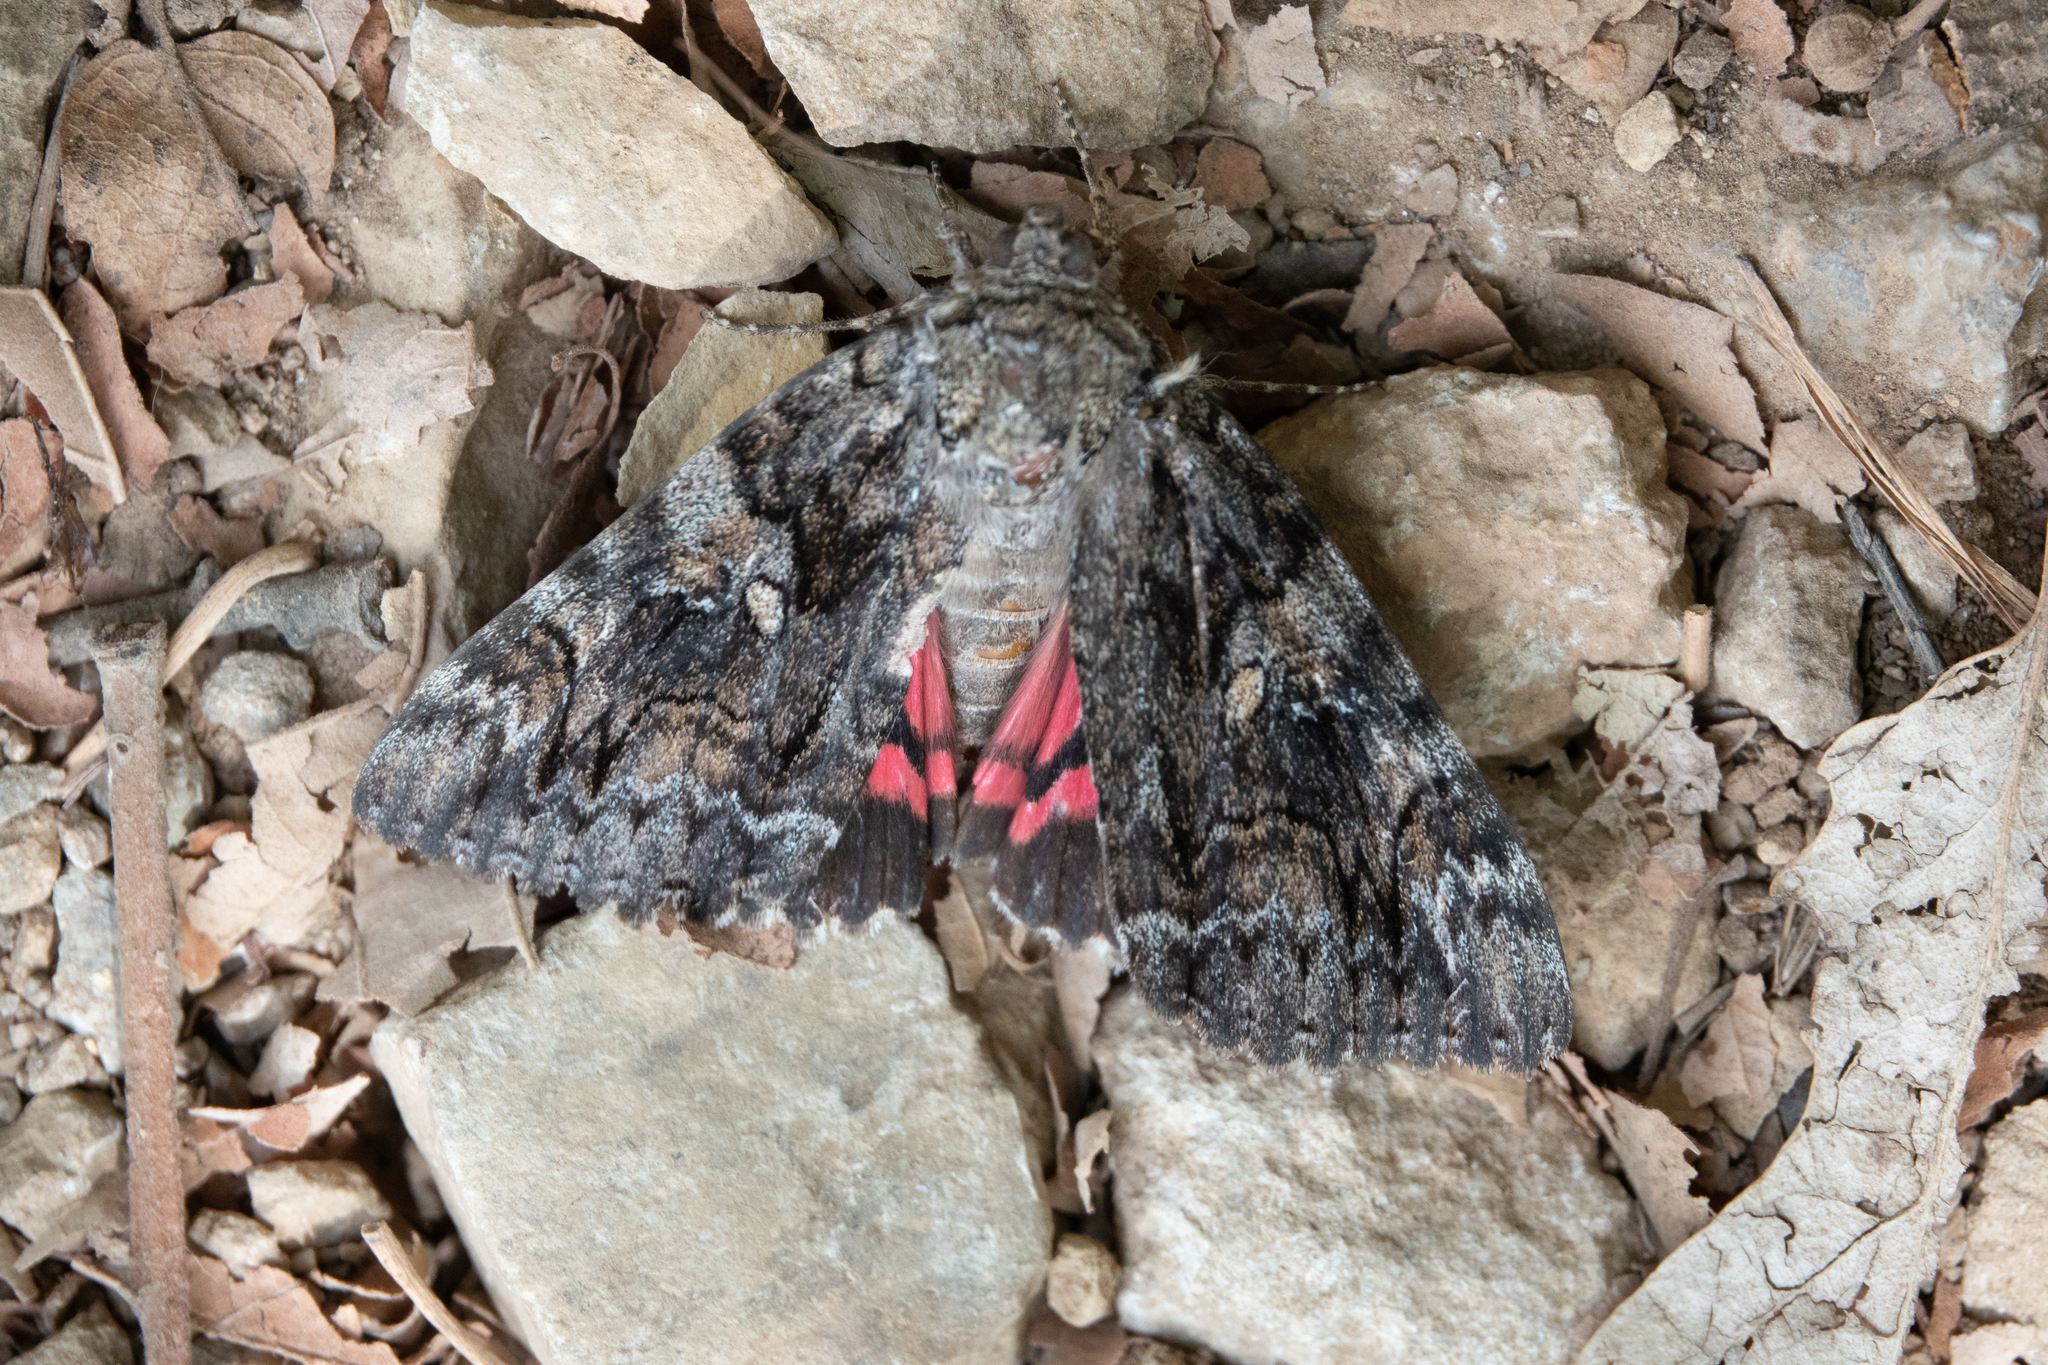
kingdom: Animalia
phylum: Arthropoda
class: Insecta
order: Lepidoptera
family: Erebidae
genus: Catocala
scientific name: Catocala sponsa
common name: Dark crimson underwing
